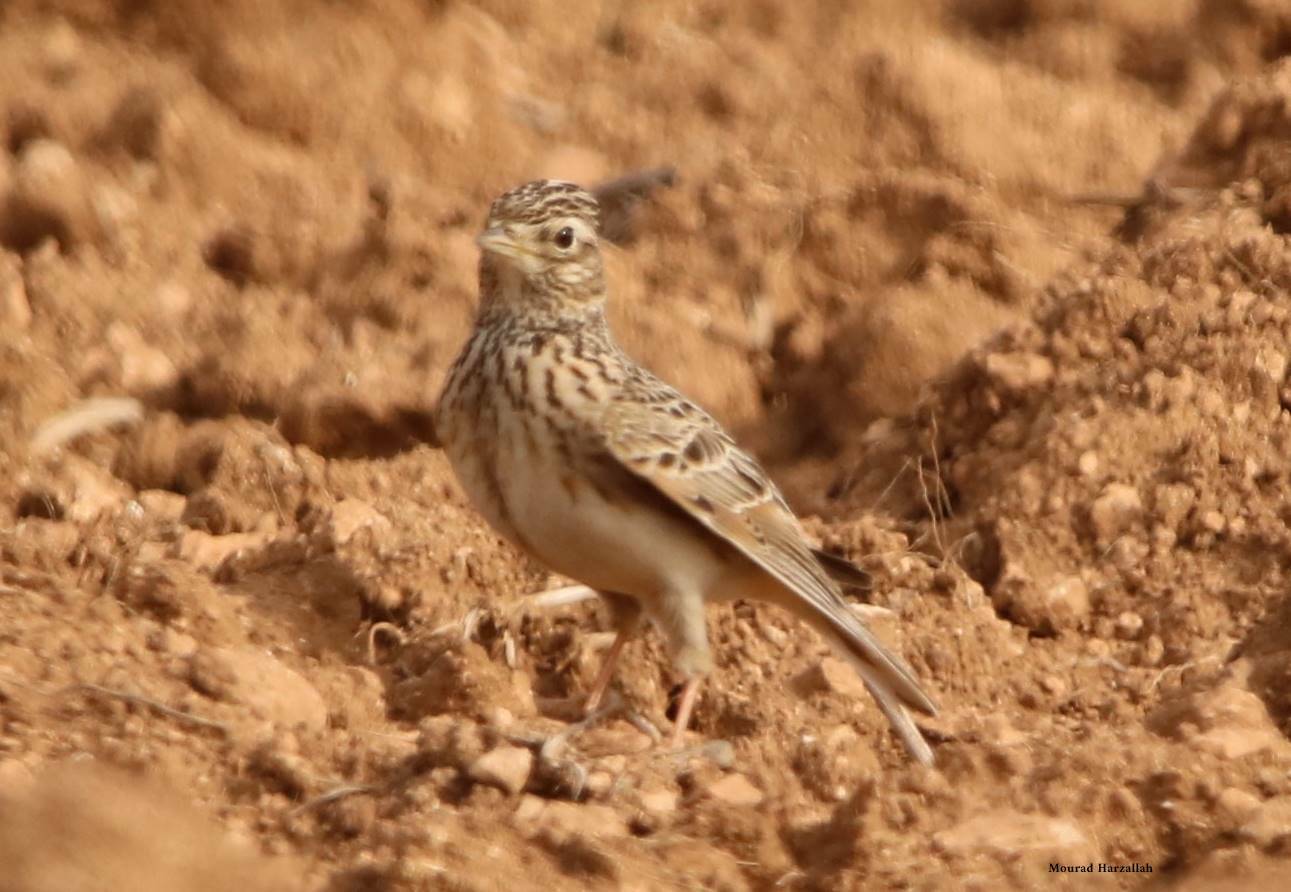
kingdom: Animalia
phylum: Chordata
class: Aves
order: Passeriformes
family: Alaudidae
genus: Alauda
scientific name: Alauda arvensis
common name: Eurasian skylark
